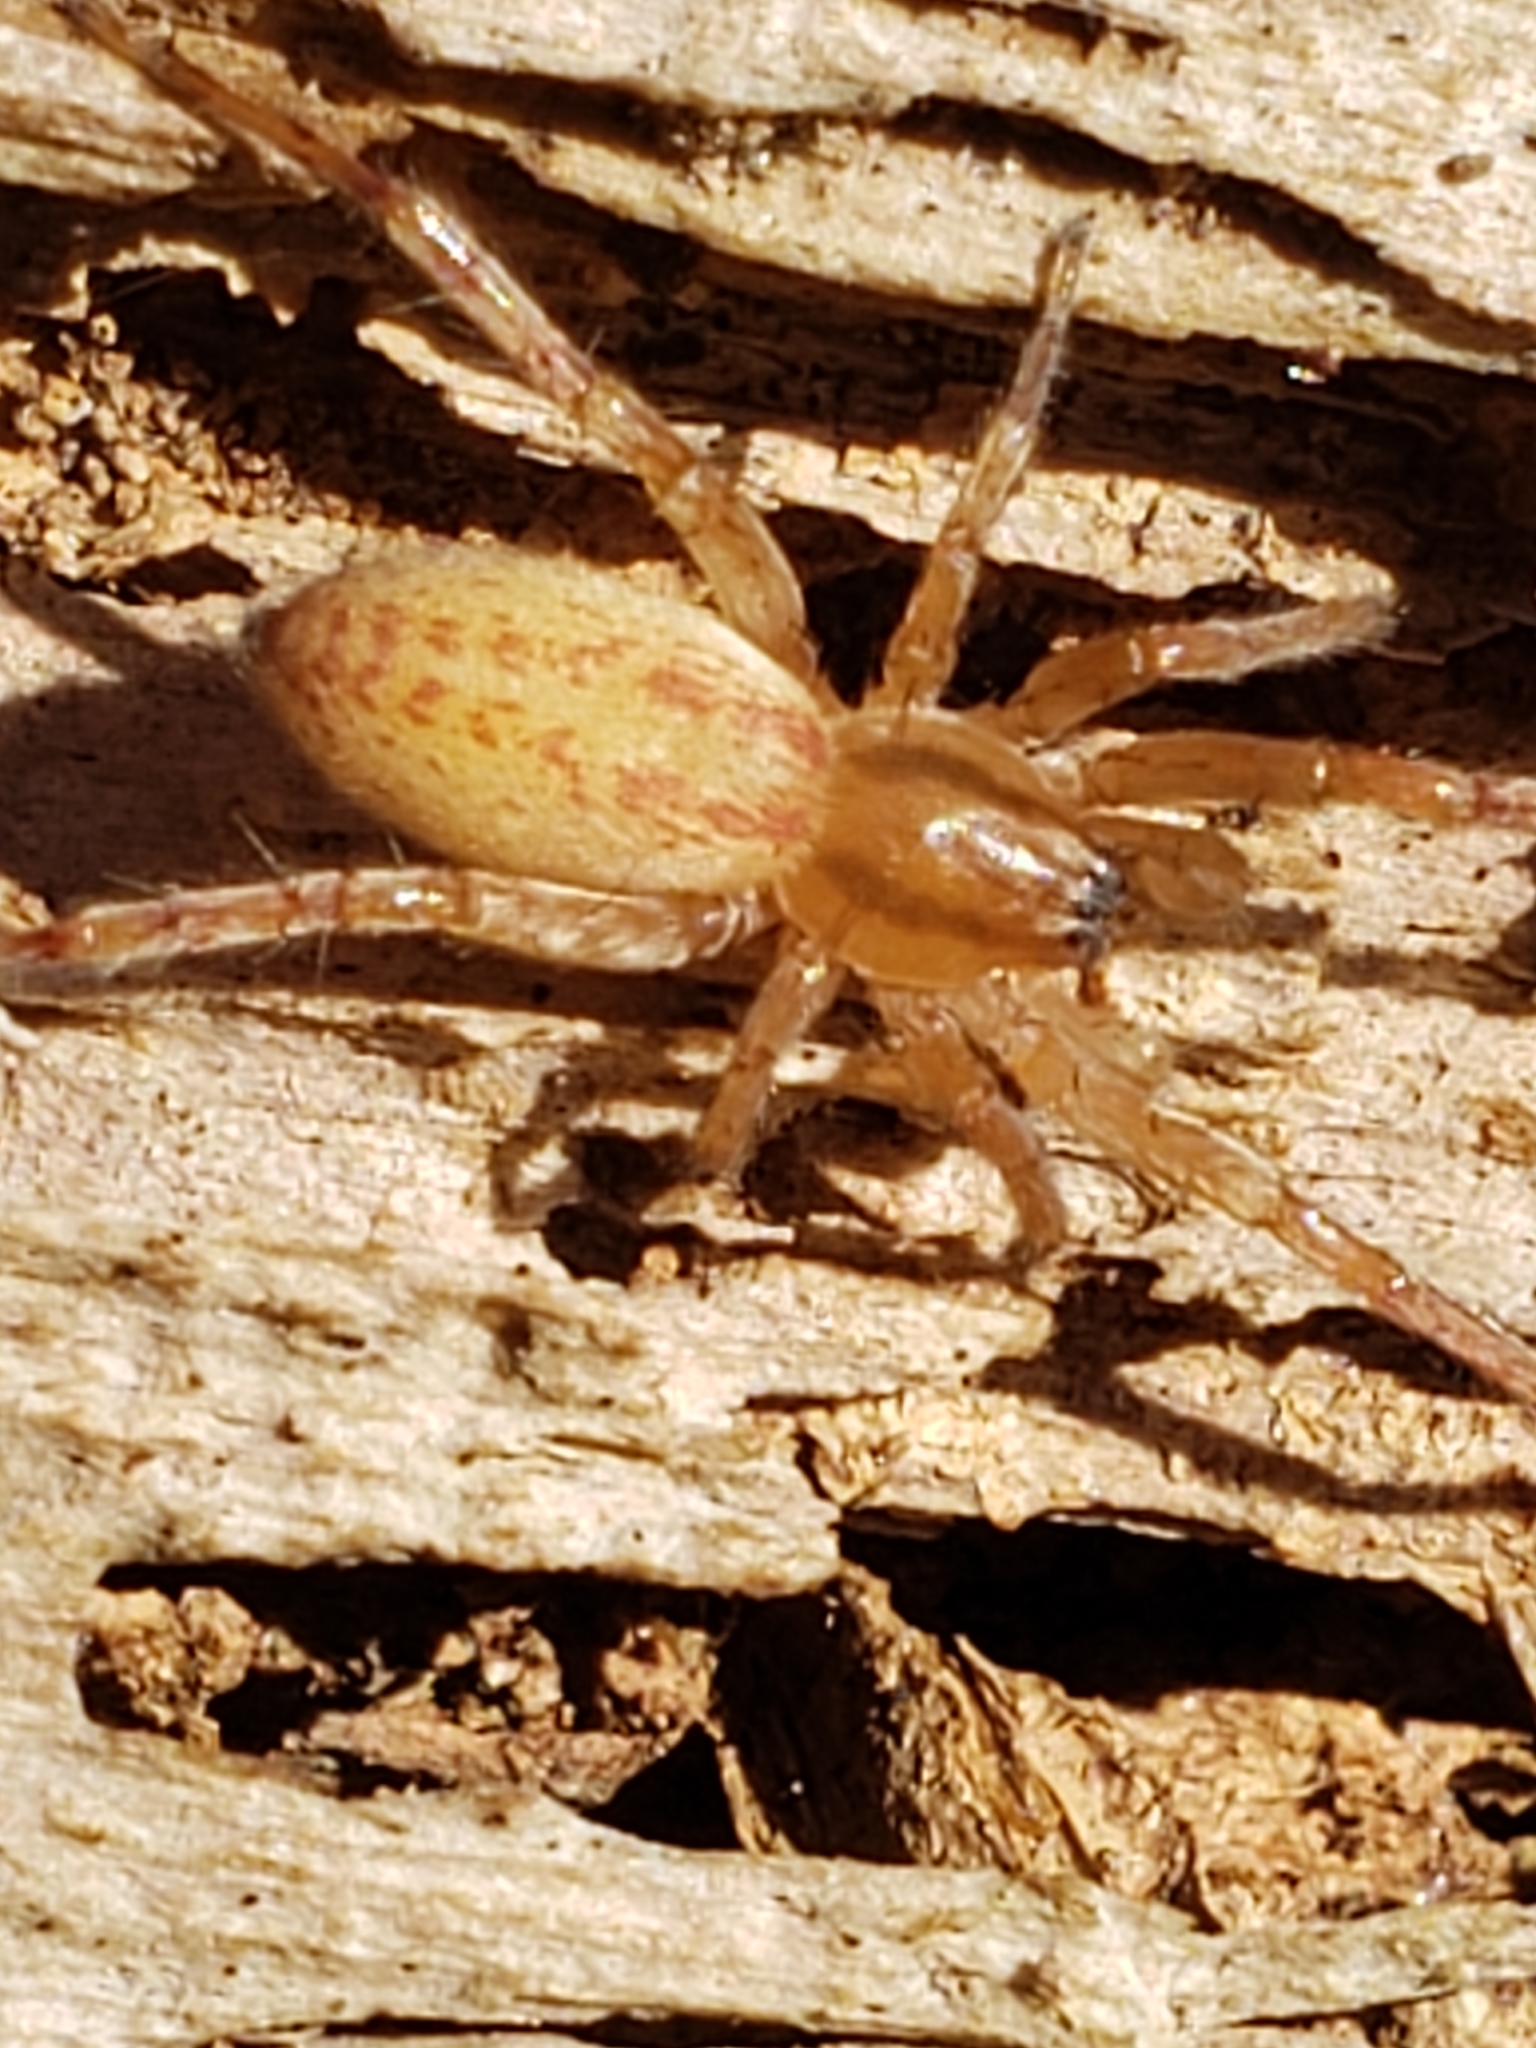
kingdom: Animalia
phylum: Arthropoda
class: Arachnida
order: Araneae
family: Anyphaenidae
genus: Hibana
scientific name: Hibana gracilis
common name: Garden ghost spider
